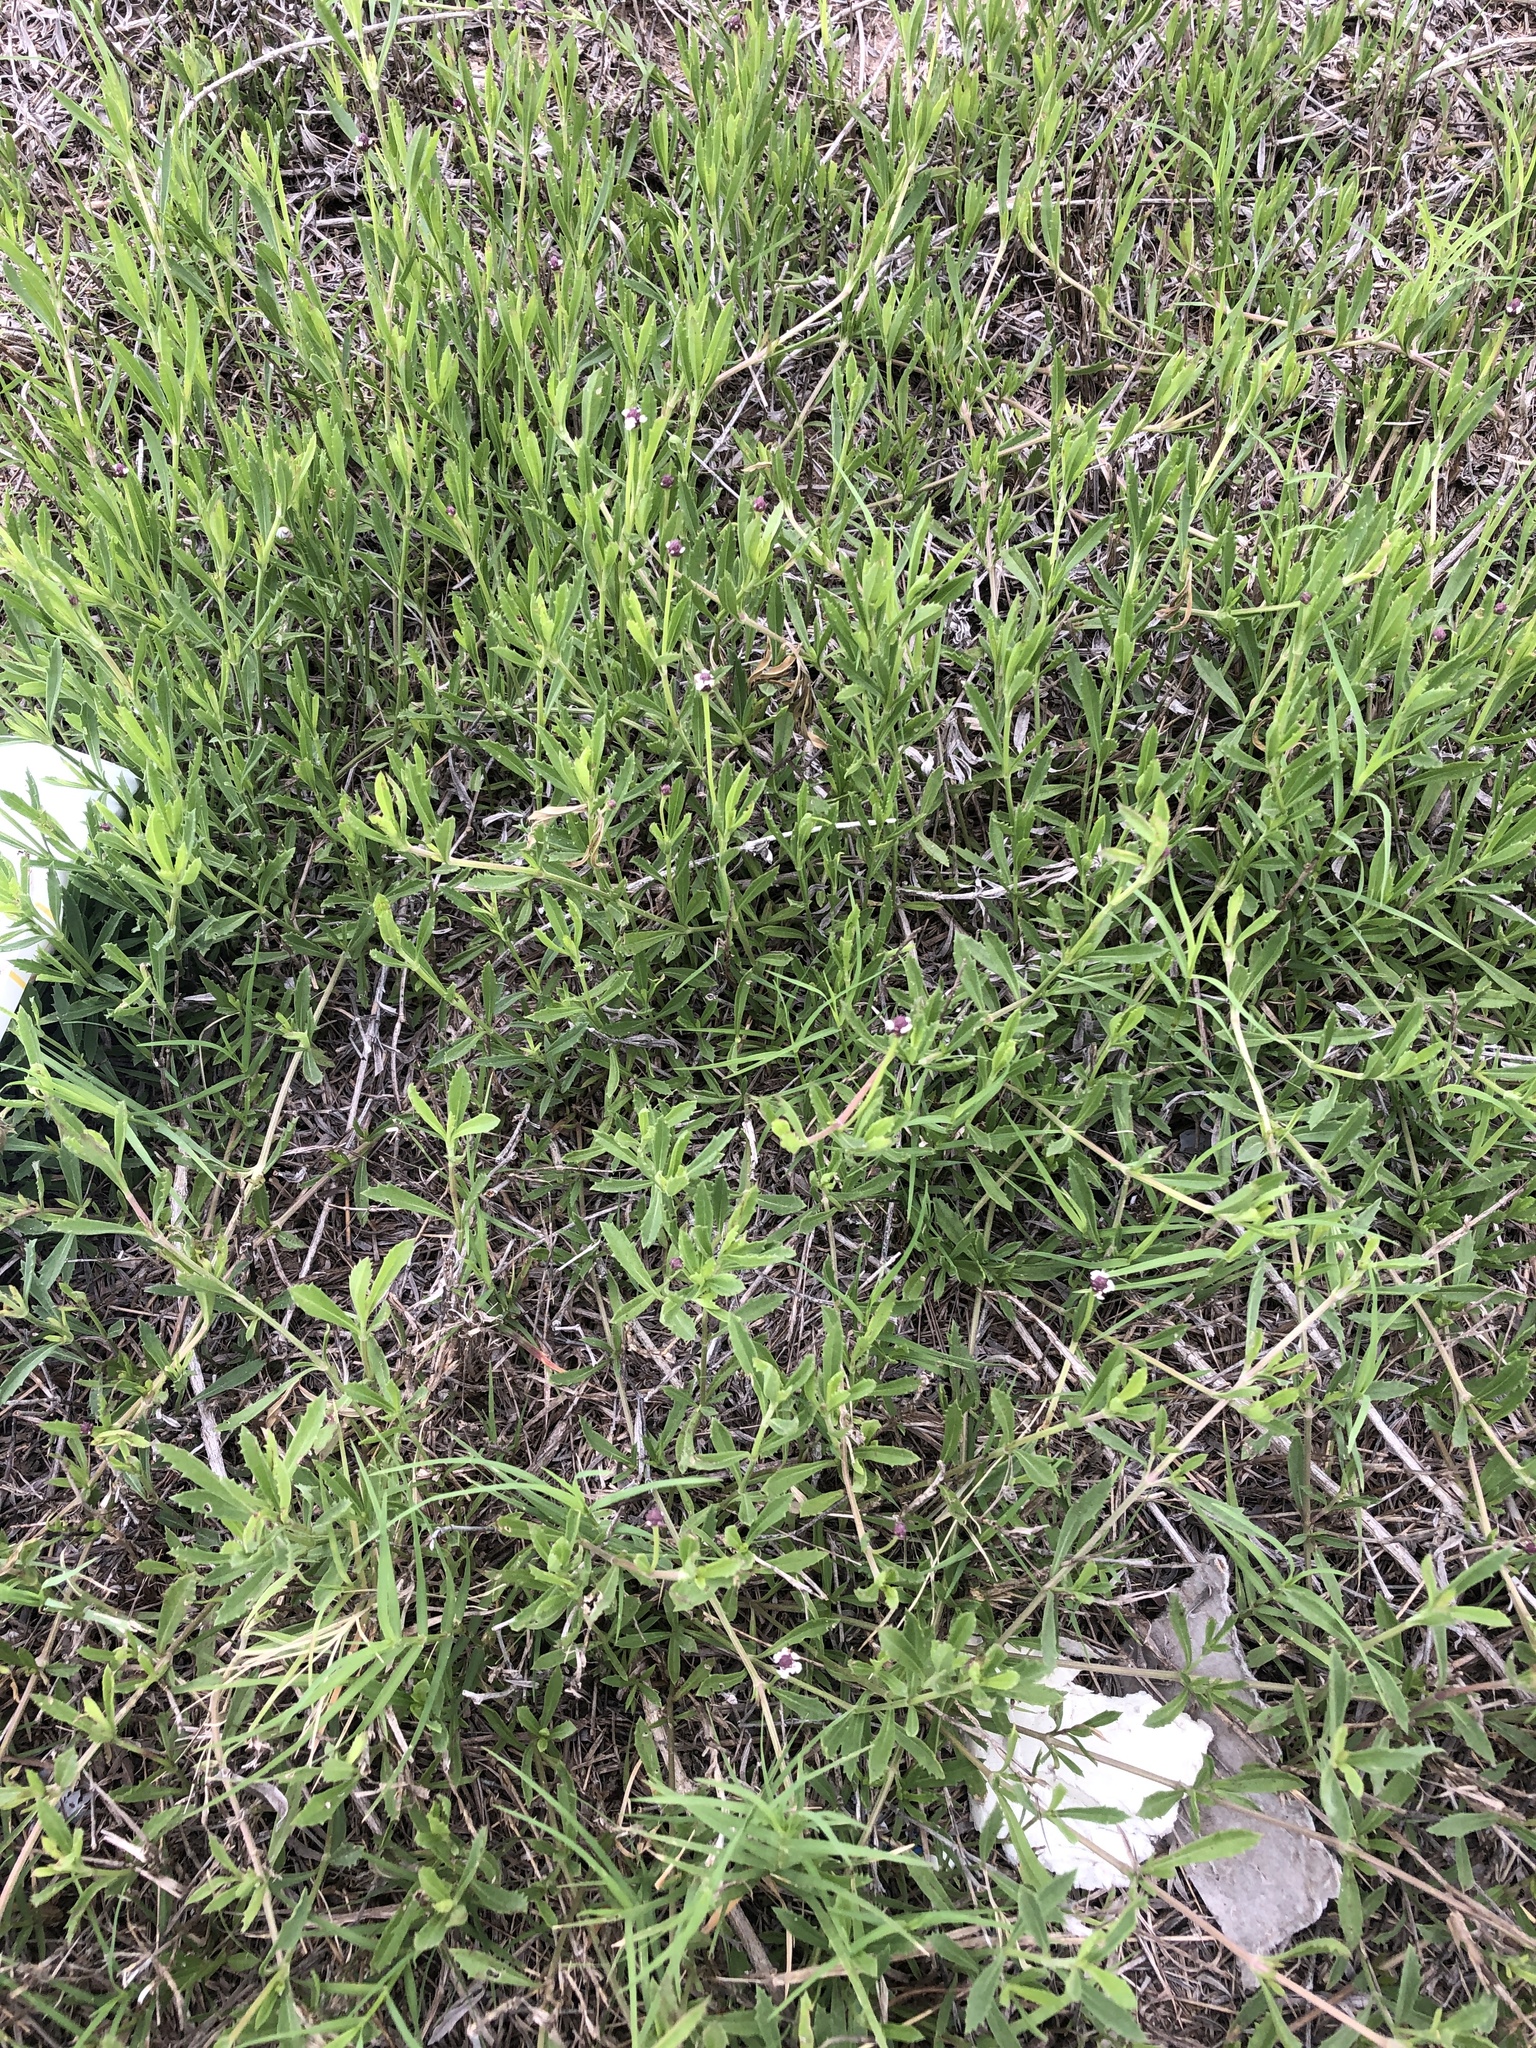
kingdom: Plantae
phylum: Tracheophyta
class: Magnoliopsida
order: Lamiales
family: Verbenaceae
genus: Phyla
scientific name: Phyla nodiflora
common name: Frogfruit
